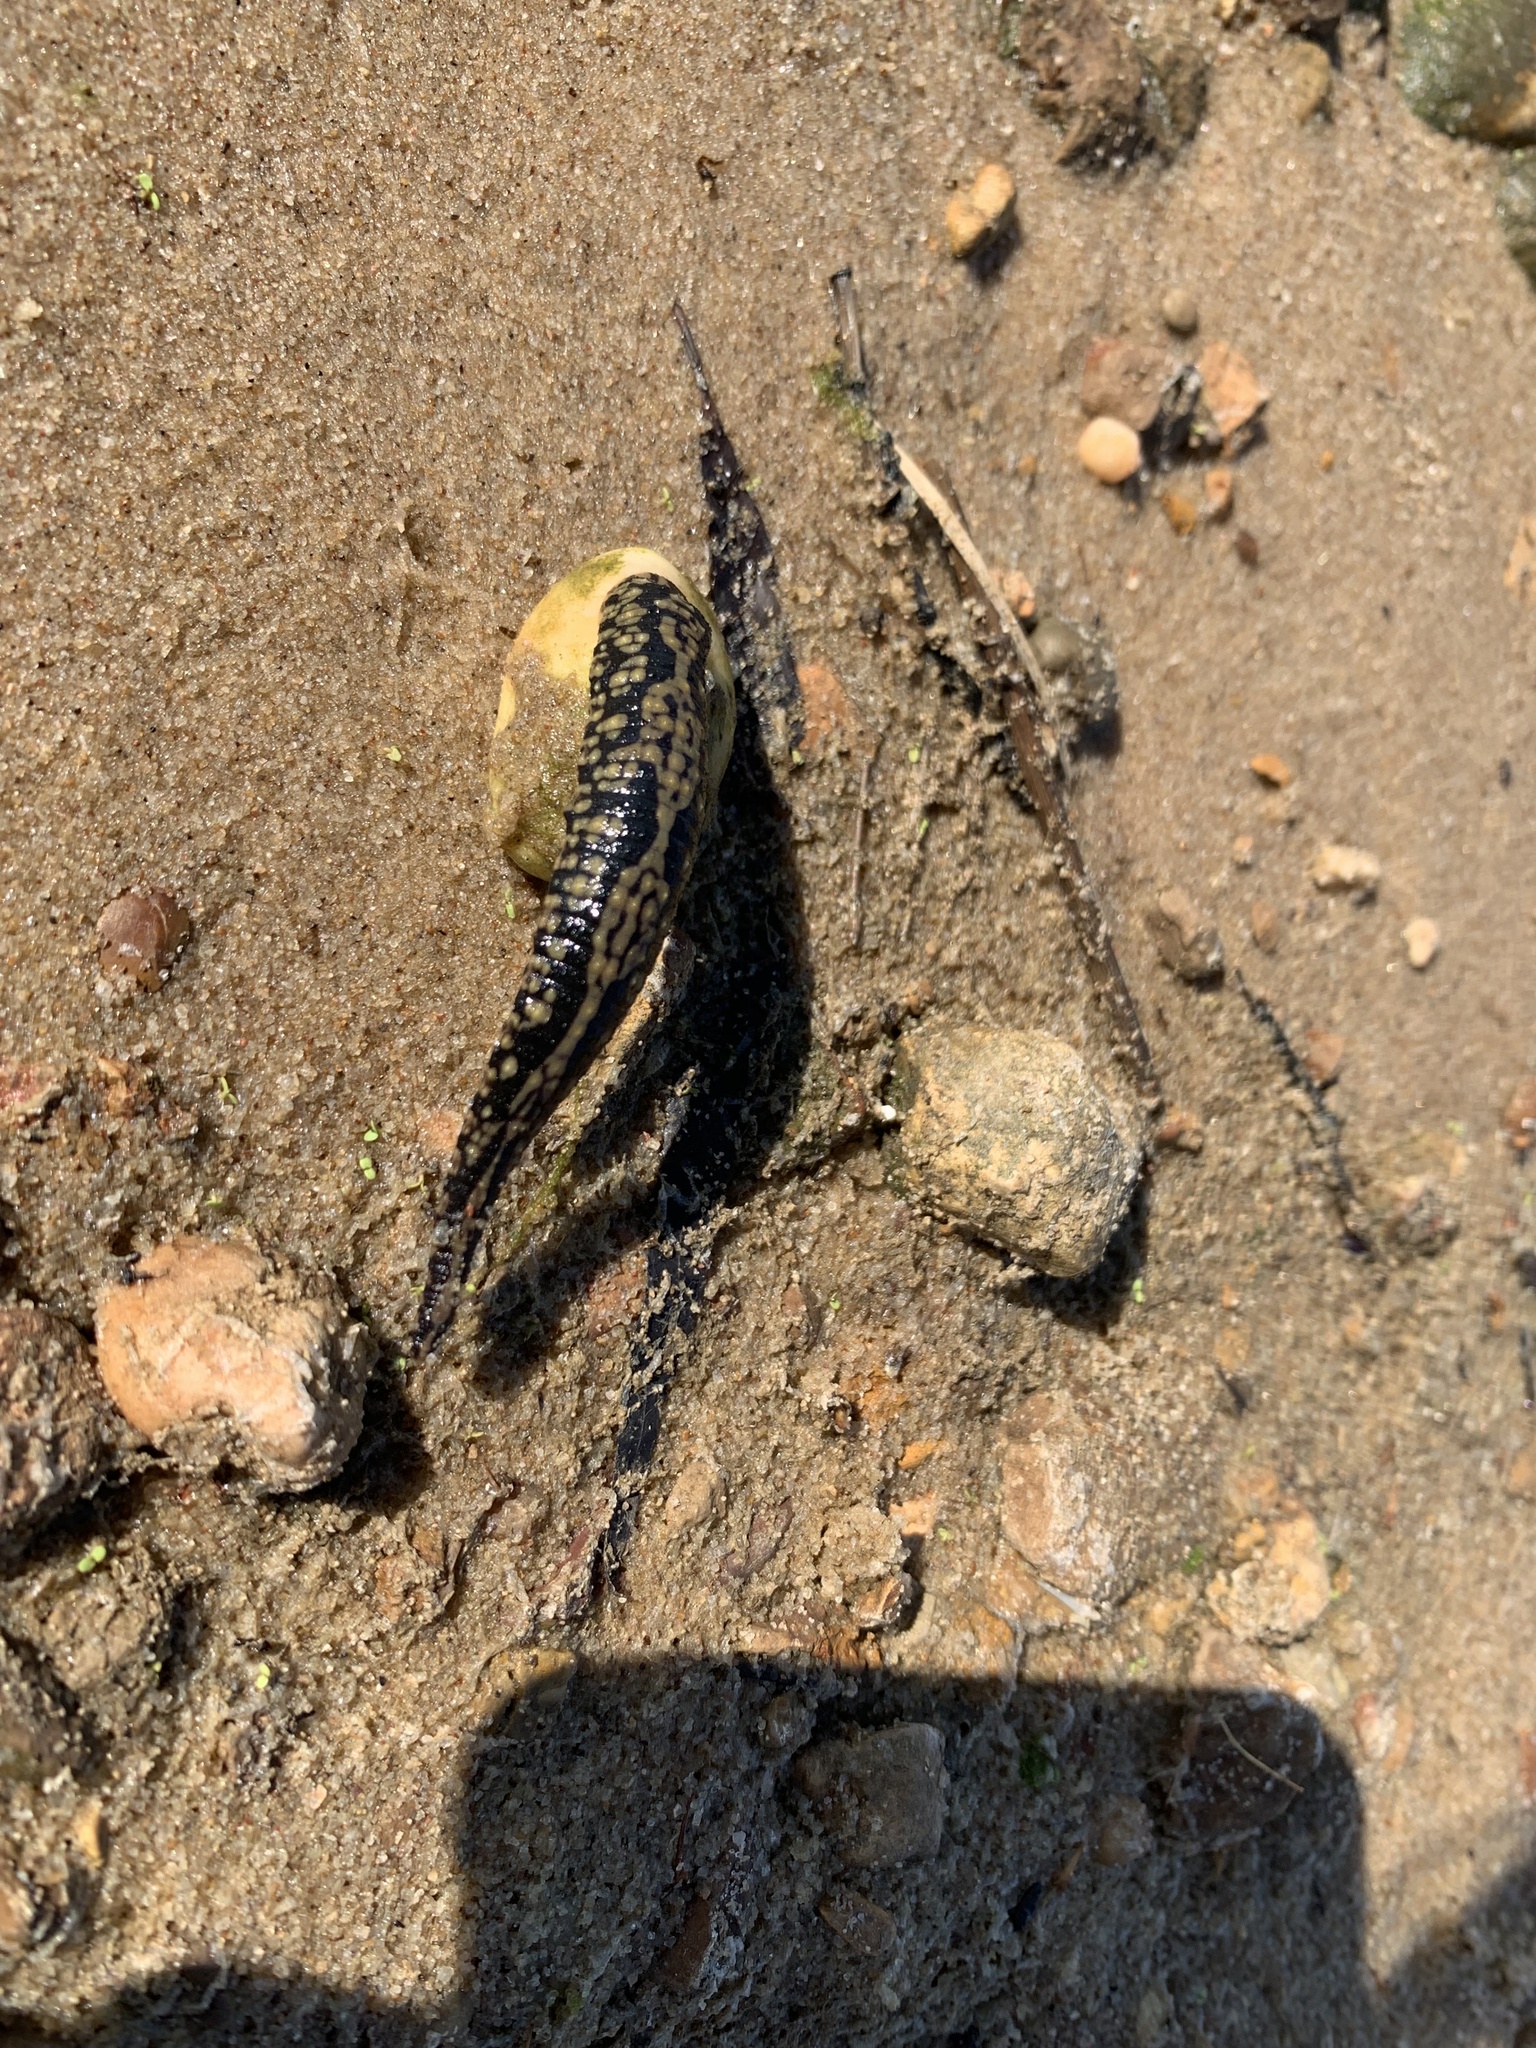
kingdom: Animalia
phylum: Annelida
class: Clitellata
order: Rhynchobdellida
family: Glossiphoniidae
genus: Placobdella
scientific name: Placobdella parasitica
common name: Smooth turtle leech
